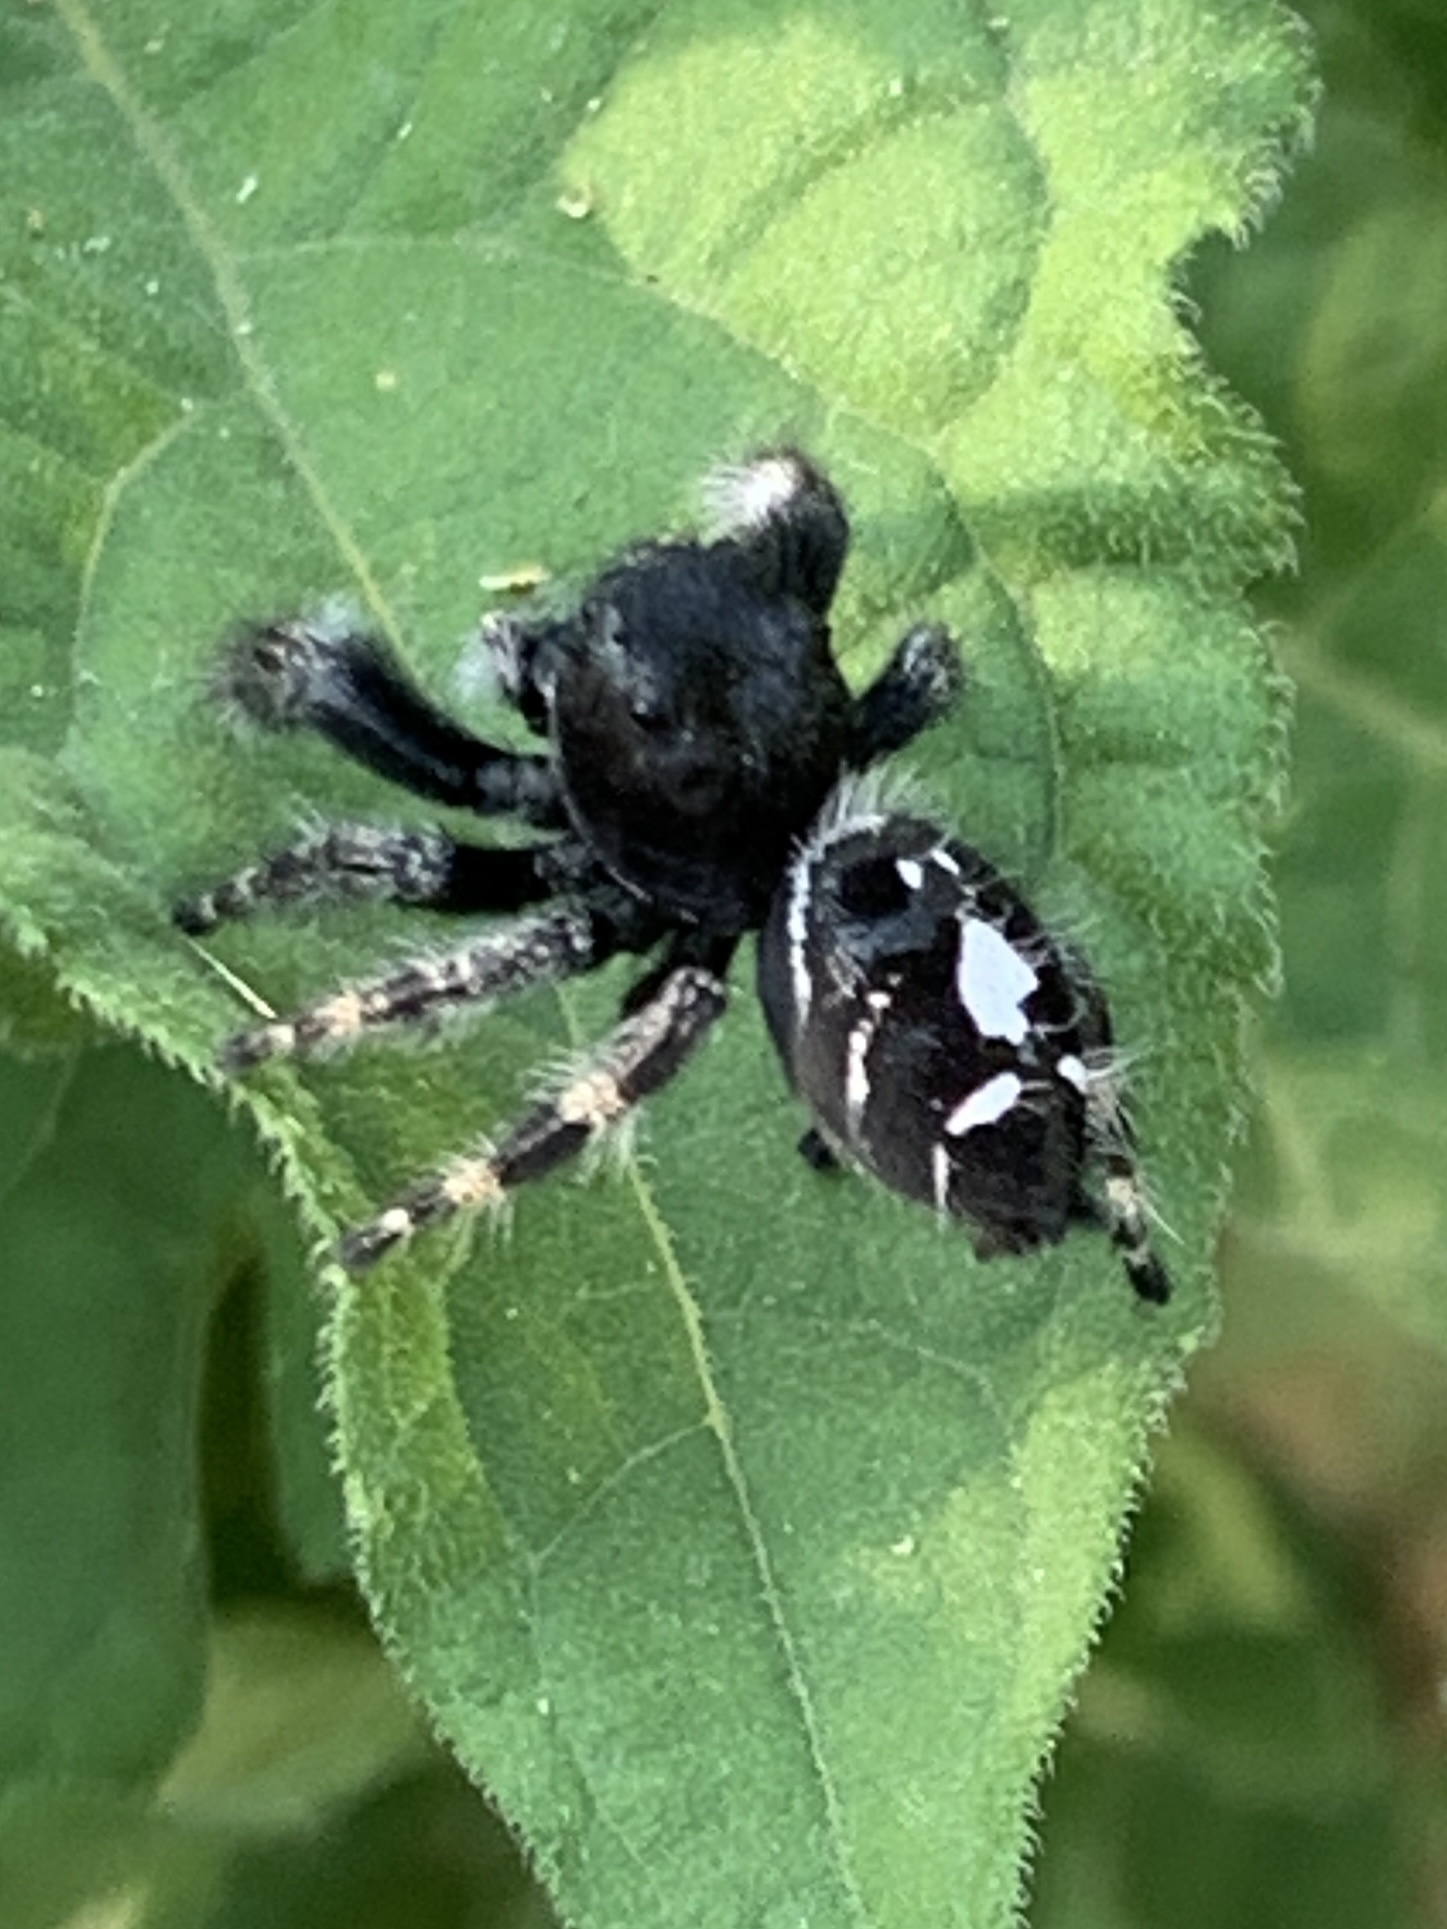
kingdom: Animalia
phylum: Arthropoda
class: Arachnida
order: Araneae
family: Salticidae
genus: Phidippus
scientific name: Phidippus audax
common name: Bold jumper
